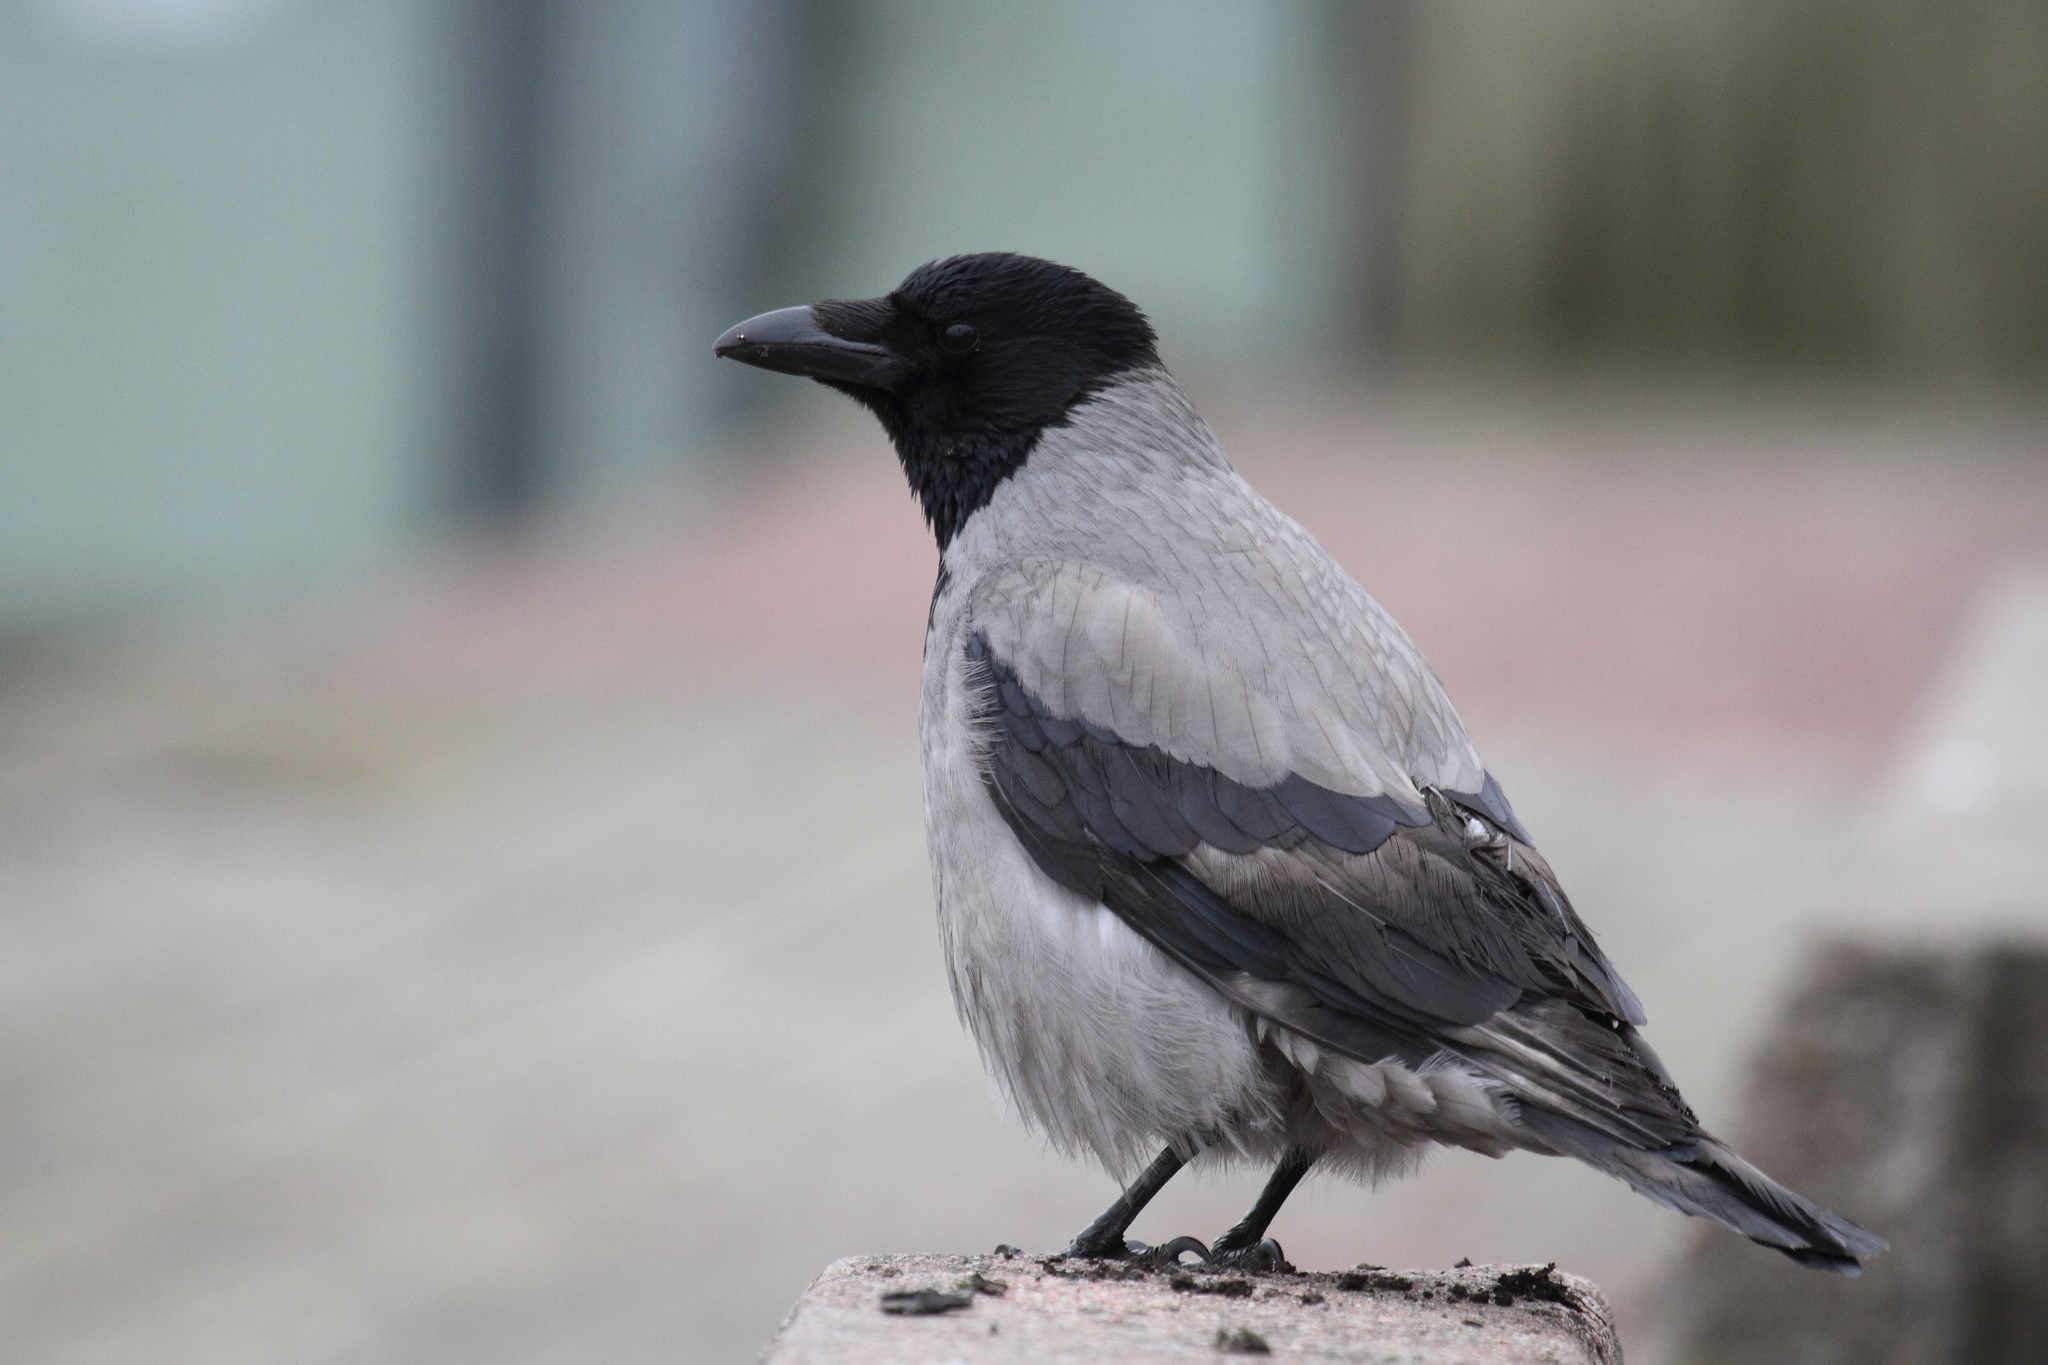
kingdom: Animalia
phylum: Chordata
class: Aves
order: Passeriformes
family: Corvidae
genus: Corvus
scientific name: Corvus cornix
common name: Hooded crow
